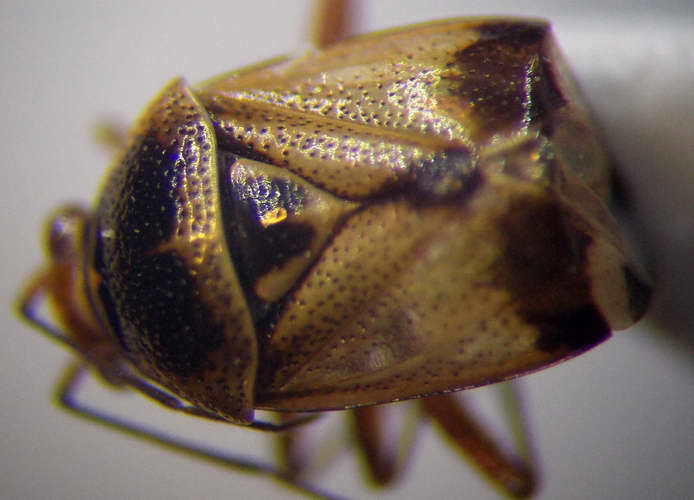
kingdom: Animalia
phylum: Arthropoda
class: Insecta
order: Hemiptera
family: Miridae
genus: Deraeocoris
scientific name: Deraeocoris serenus
